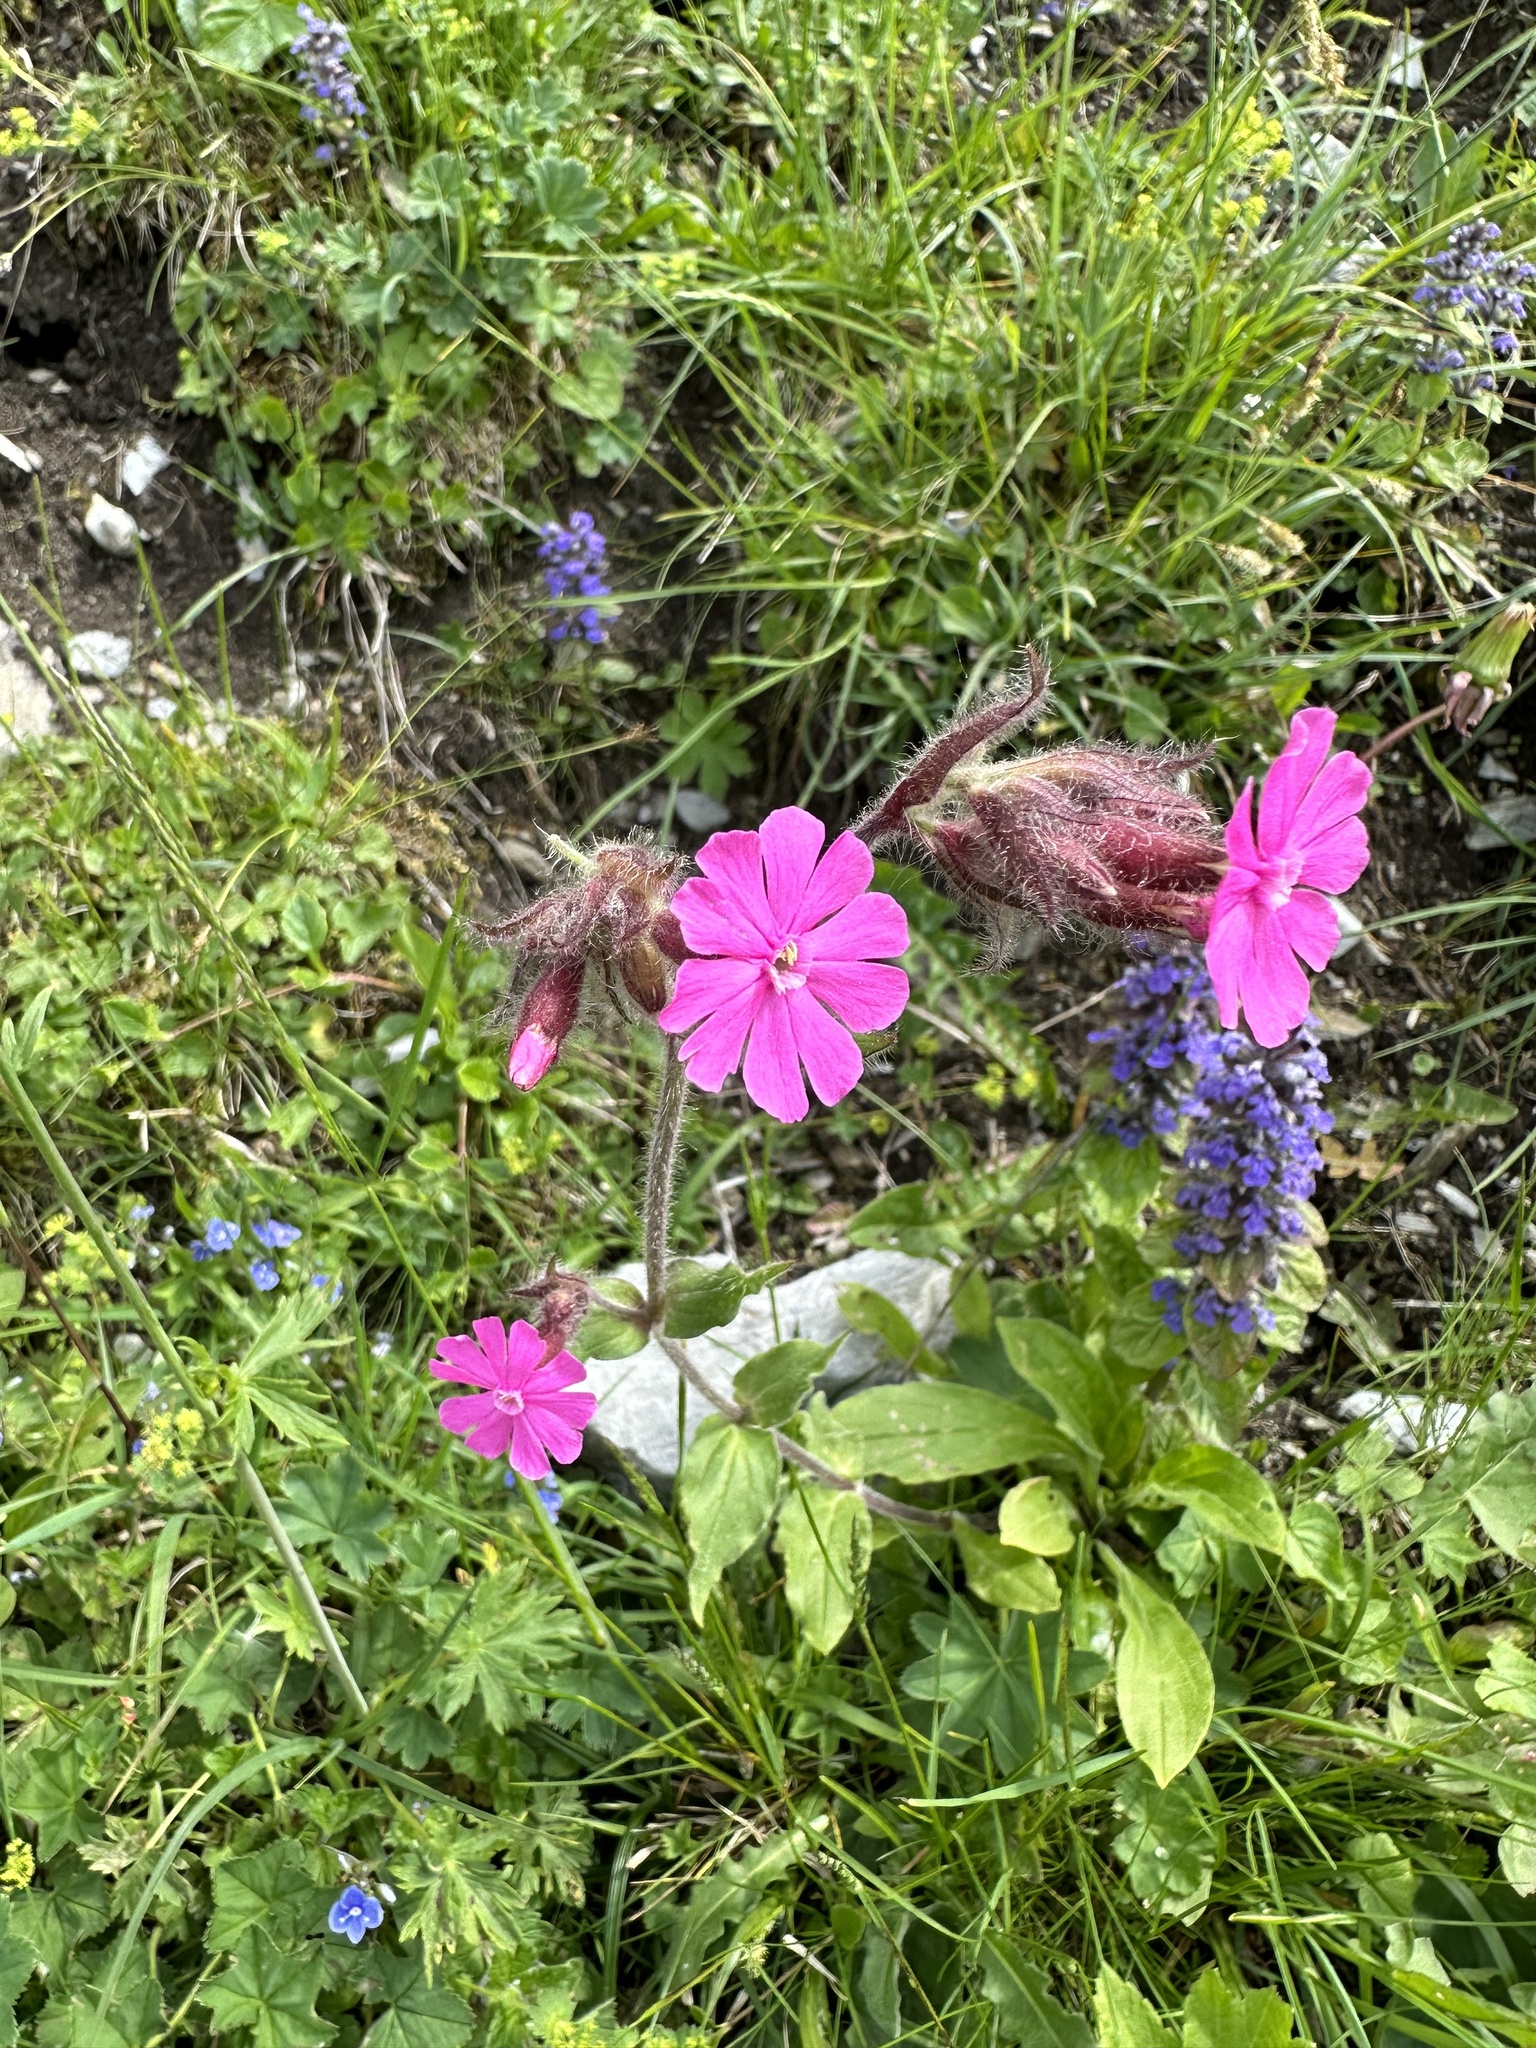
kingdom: Plantae
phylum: Tracheophyta
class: Magnoliopsida
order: Caryophyllales
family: Caryophyllaceae
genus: Silene
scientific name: Silene dioica
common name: Red campion
